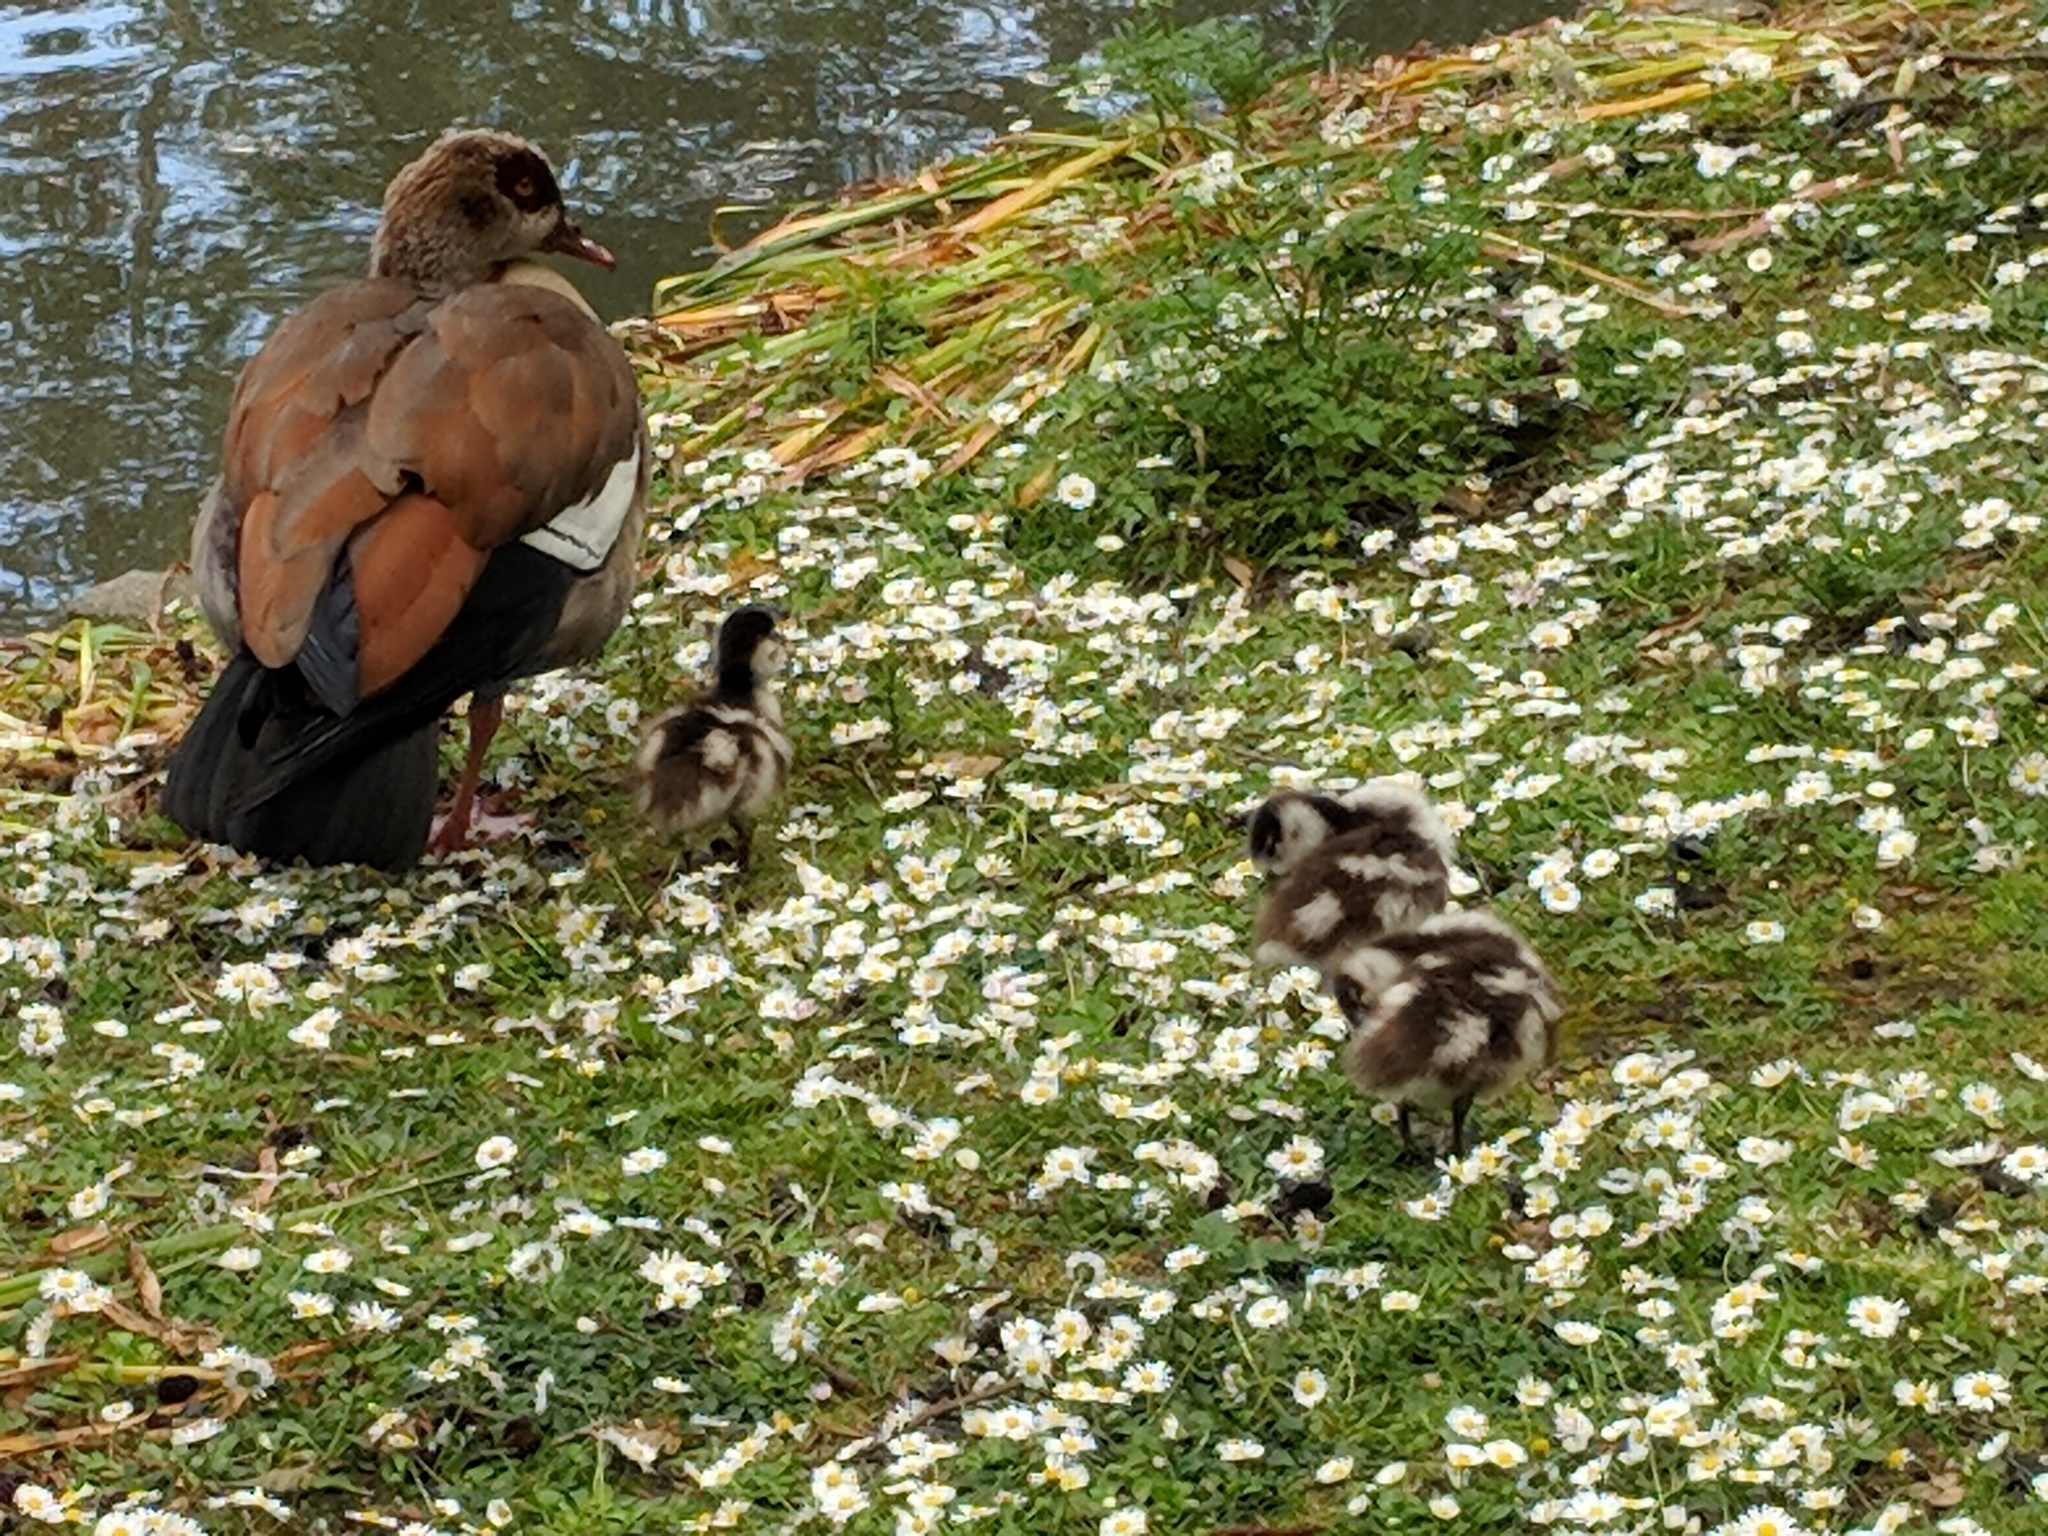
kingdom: Animalia
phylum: Chordata
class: Aves
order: Anseriformes
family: Anatidae
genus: Alopochen
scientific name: Alopochen aegyptiaca
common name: Egyptian goose
